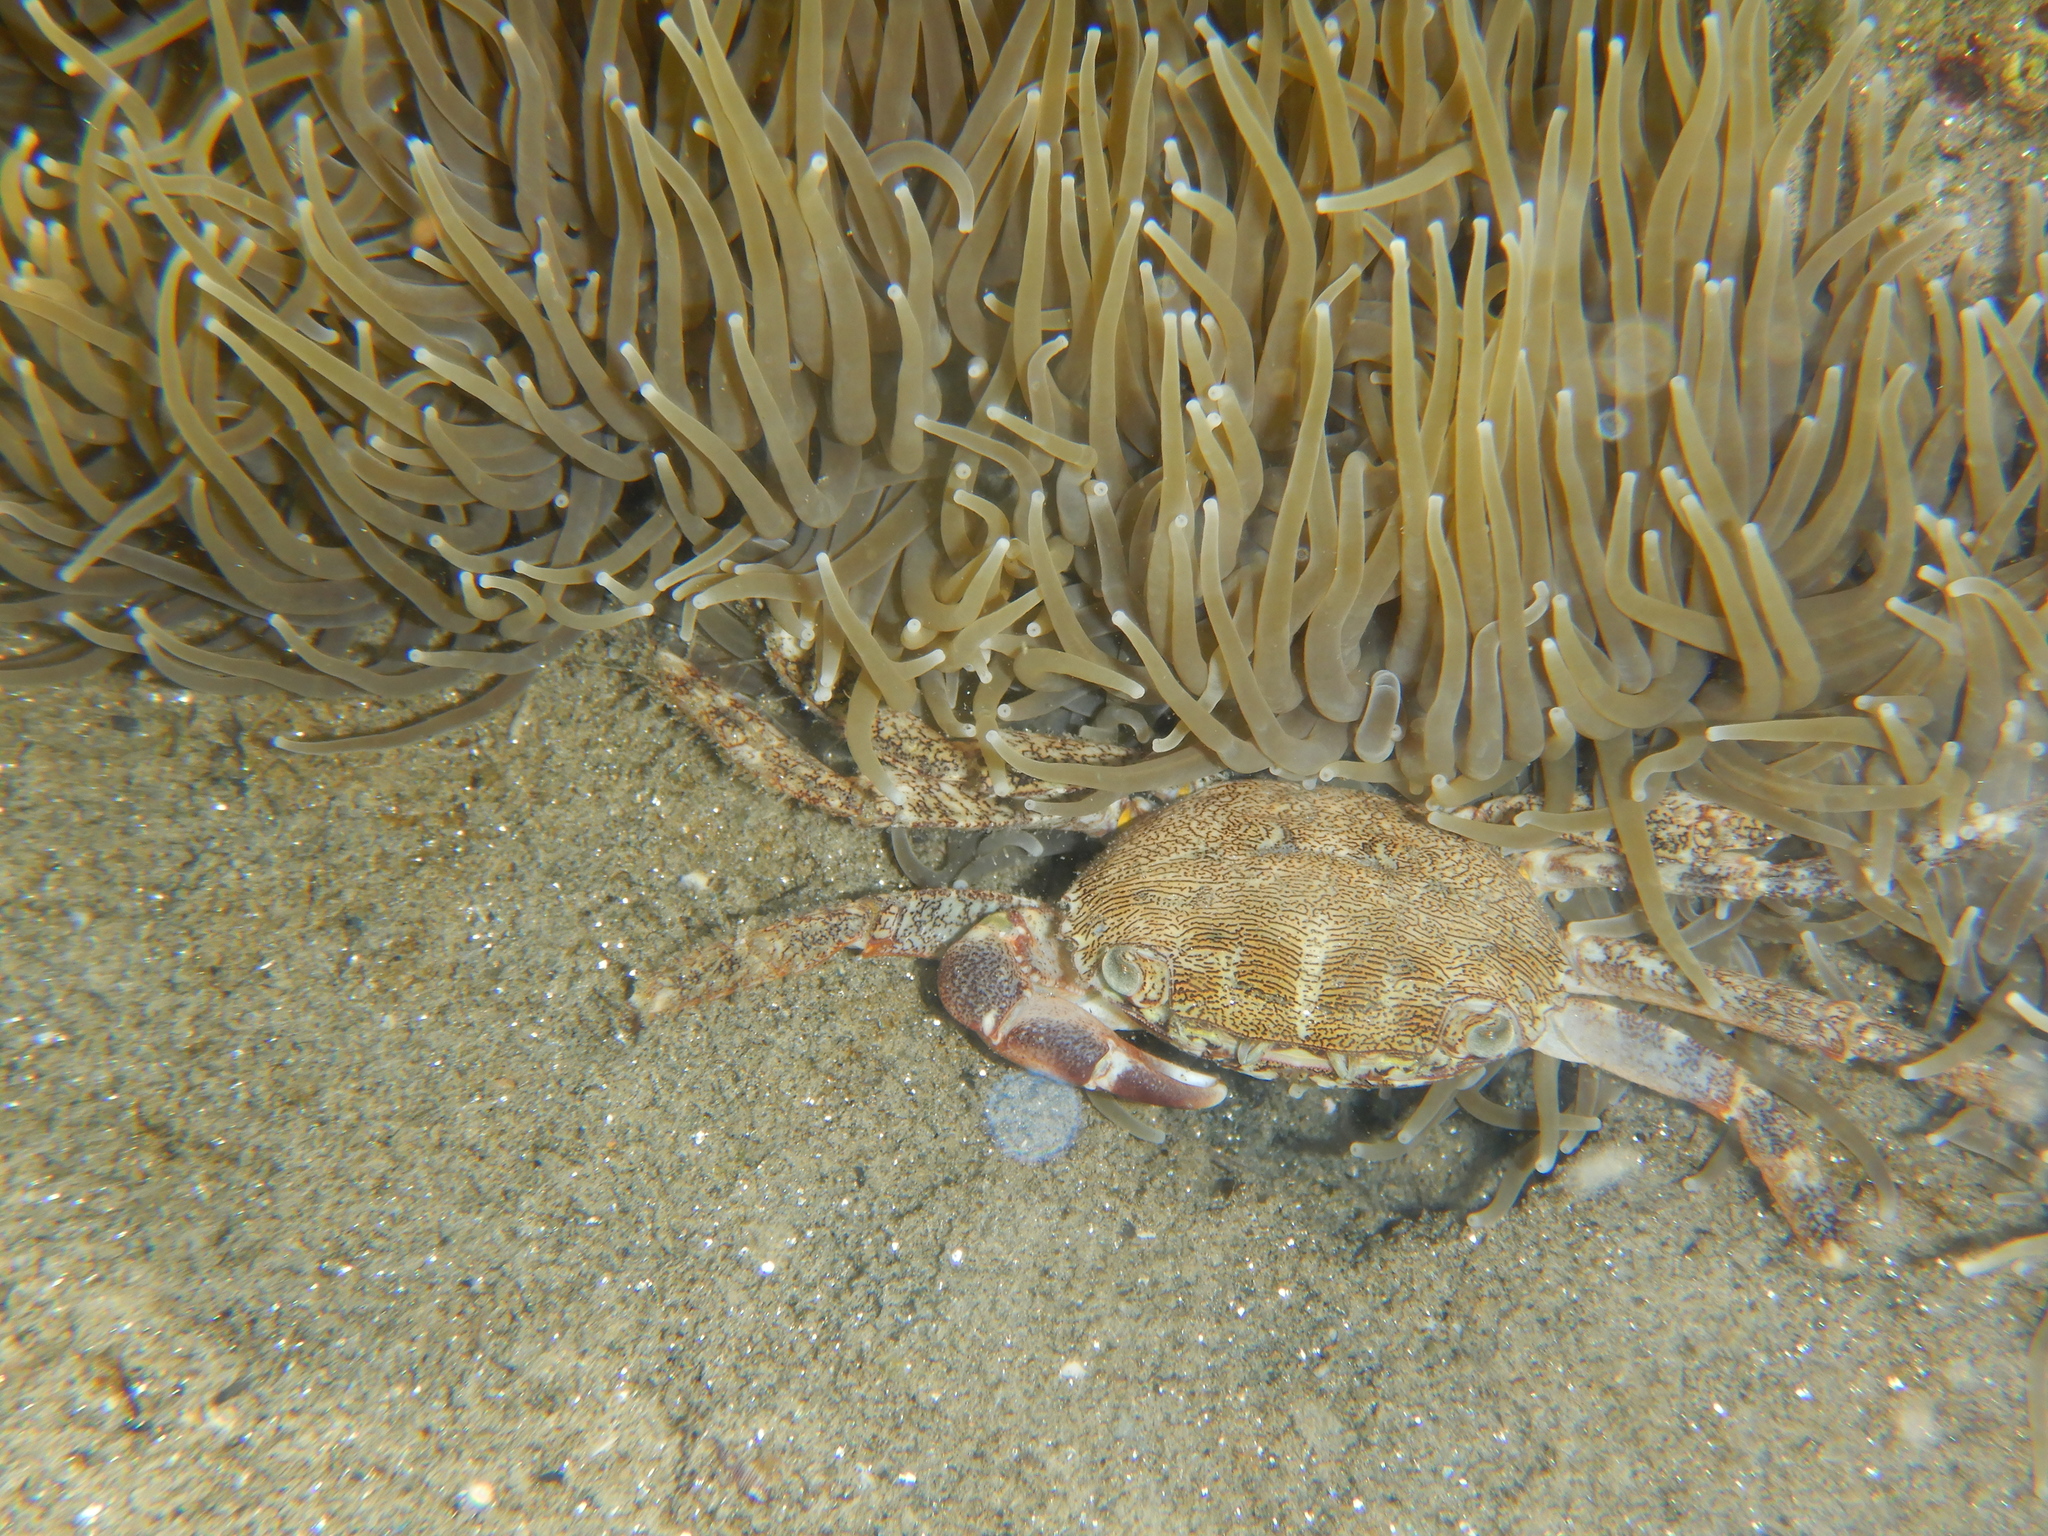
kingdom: Animalia
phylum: Arthropoda
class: Malacostraca
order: Decapoda
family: Grapsidae
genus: Pachygrapsus
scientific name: Pachygrapsus marmoratus
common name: Marbled rock crab
